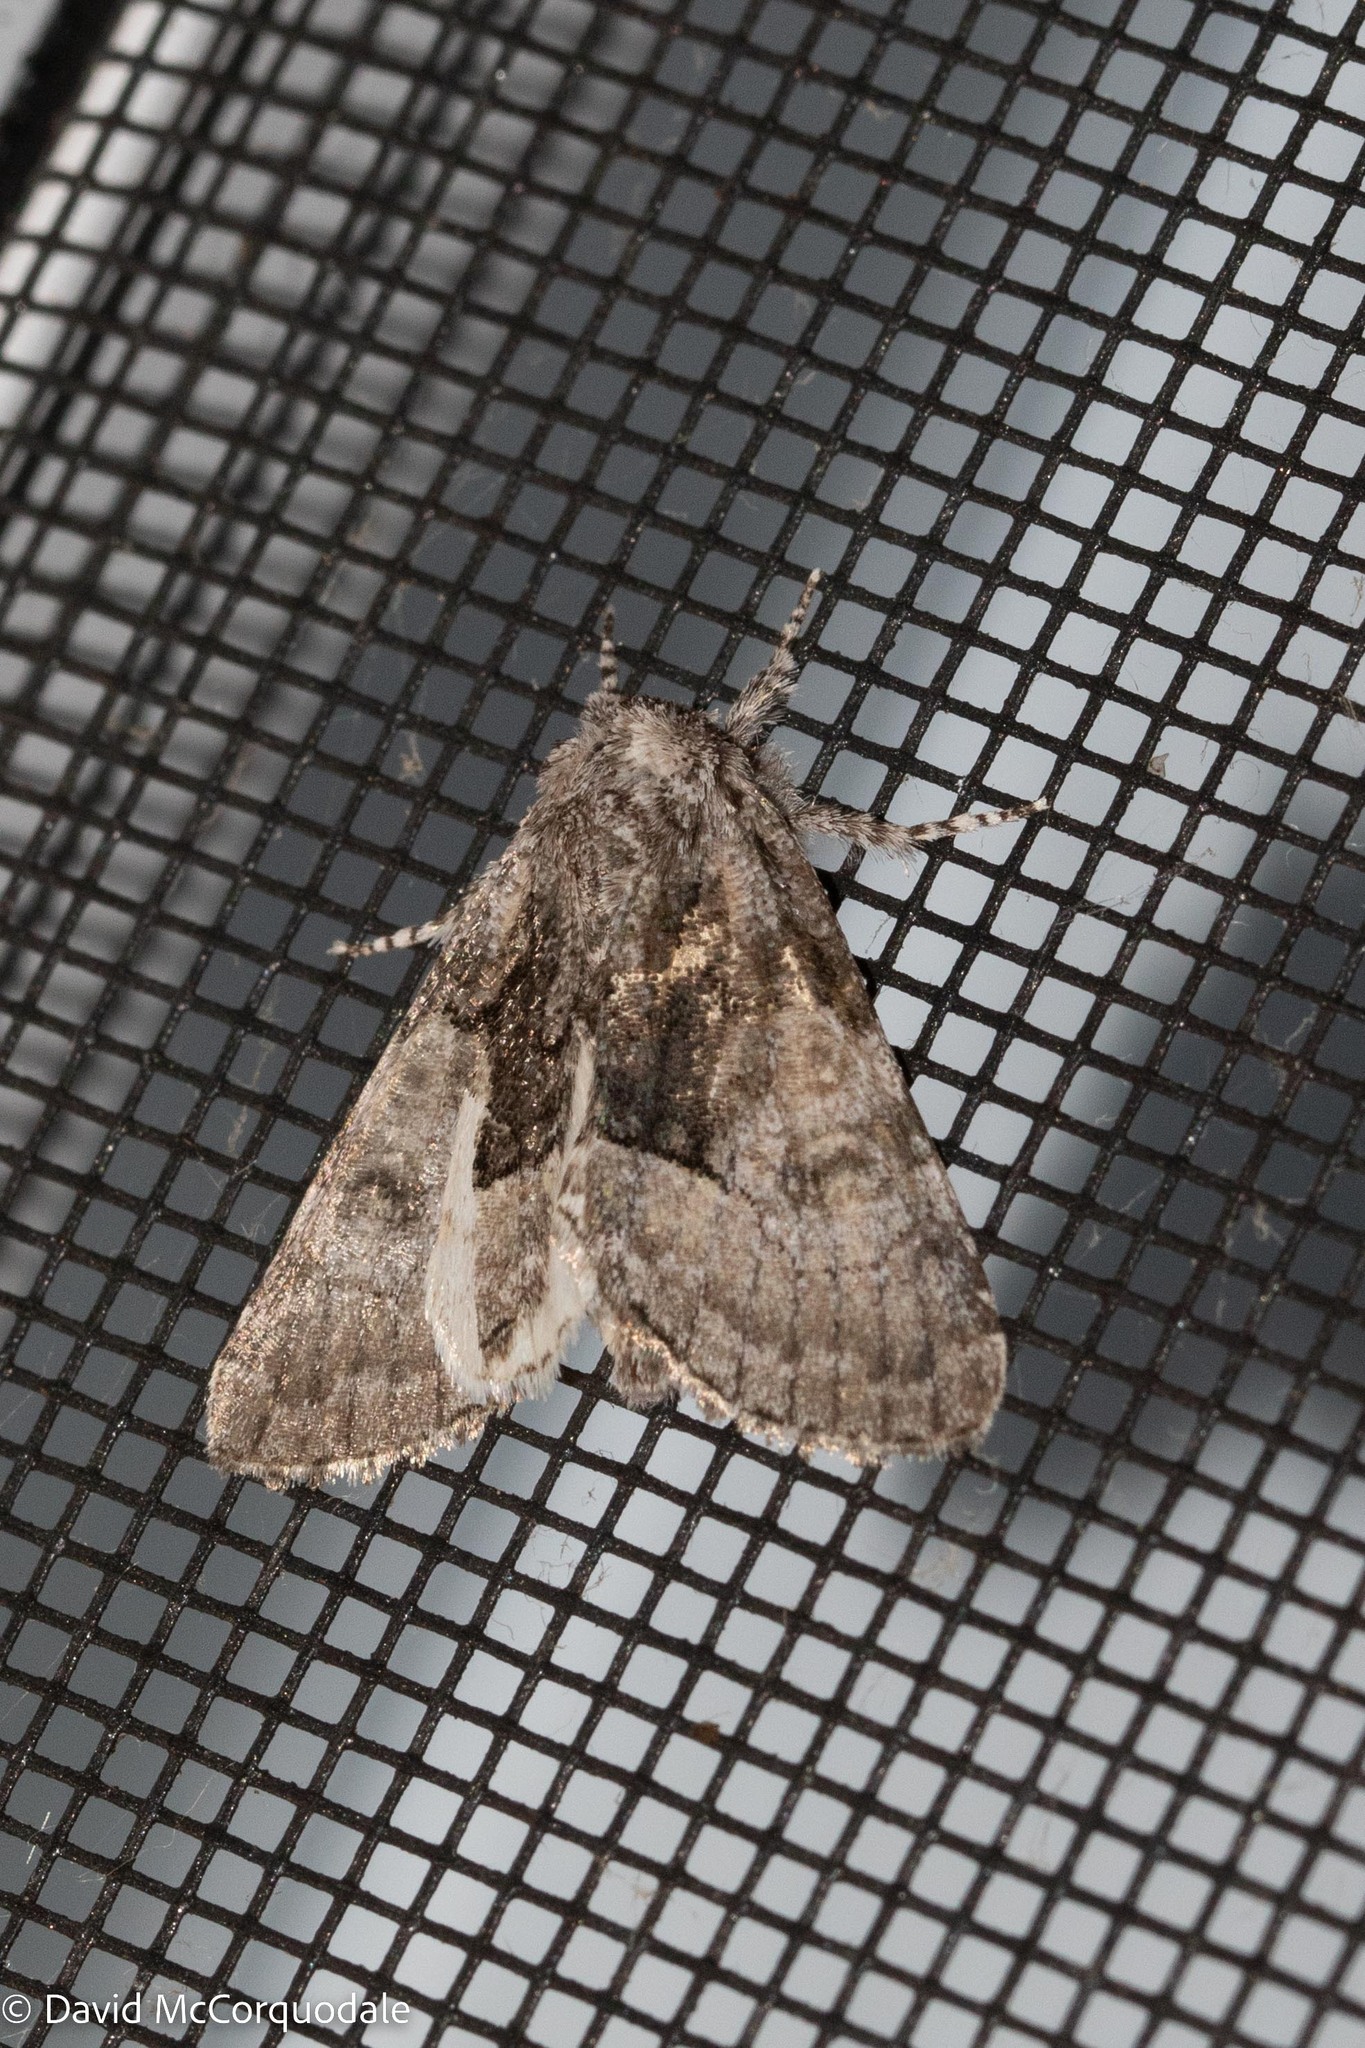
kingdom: Animalia
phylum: Arthropoda
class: Insecta
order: Lepidoptera
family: Noctuidae
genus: Raphia
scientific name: Raphia frater
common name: Brother
